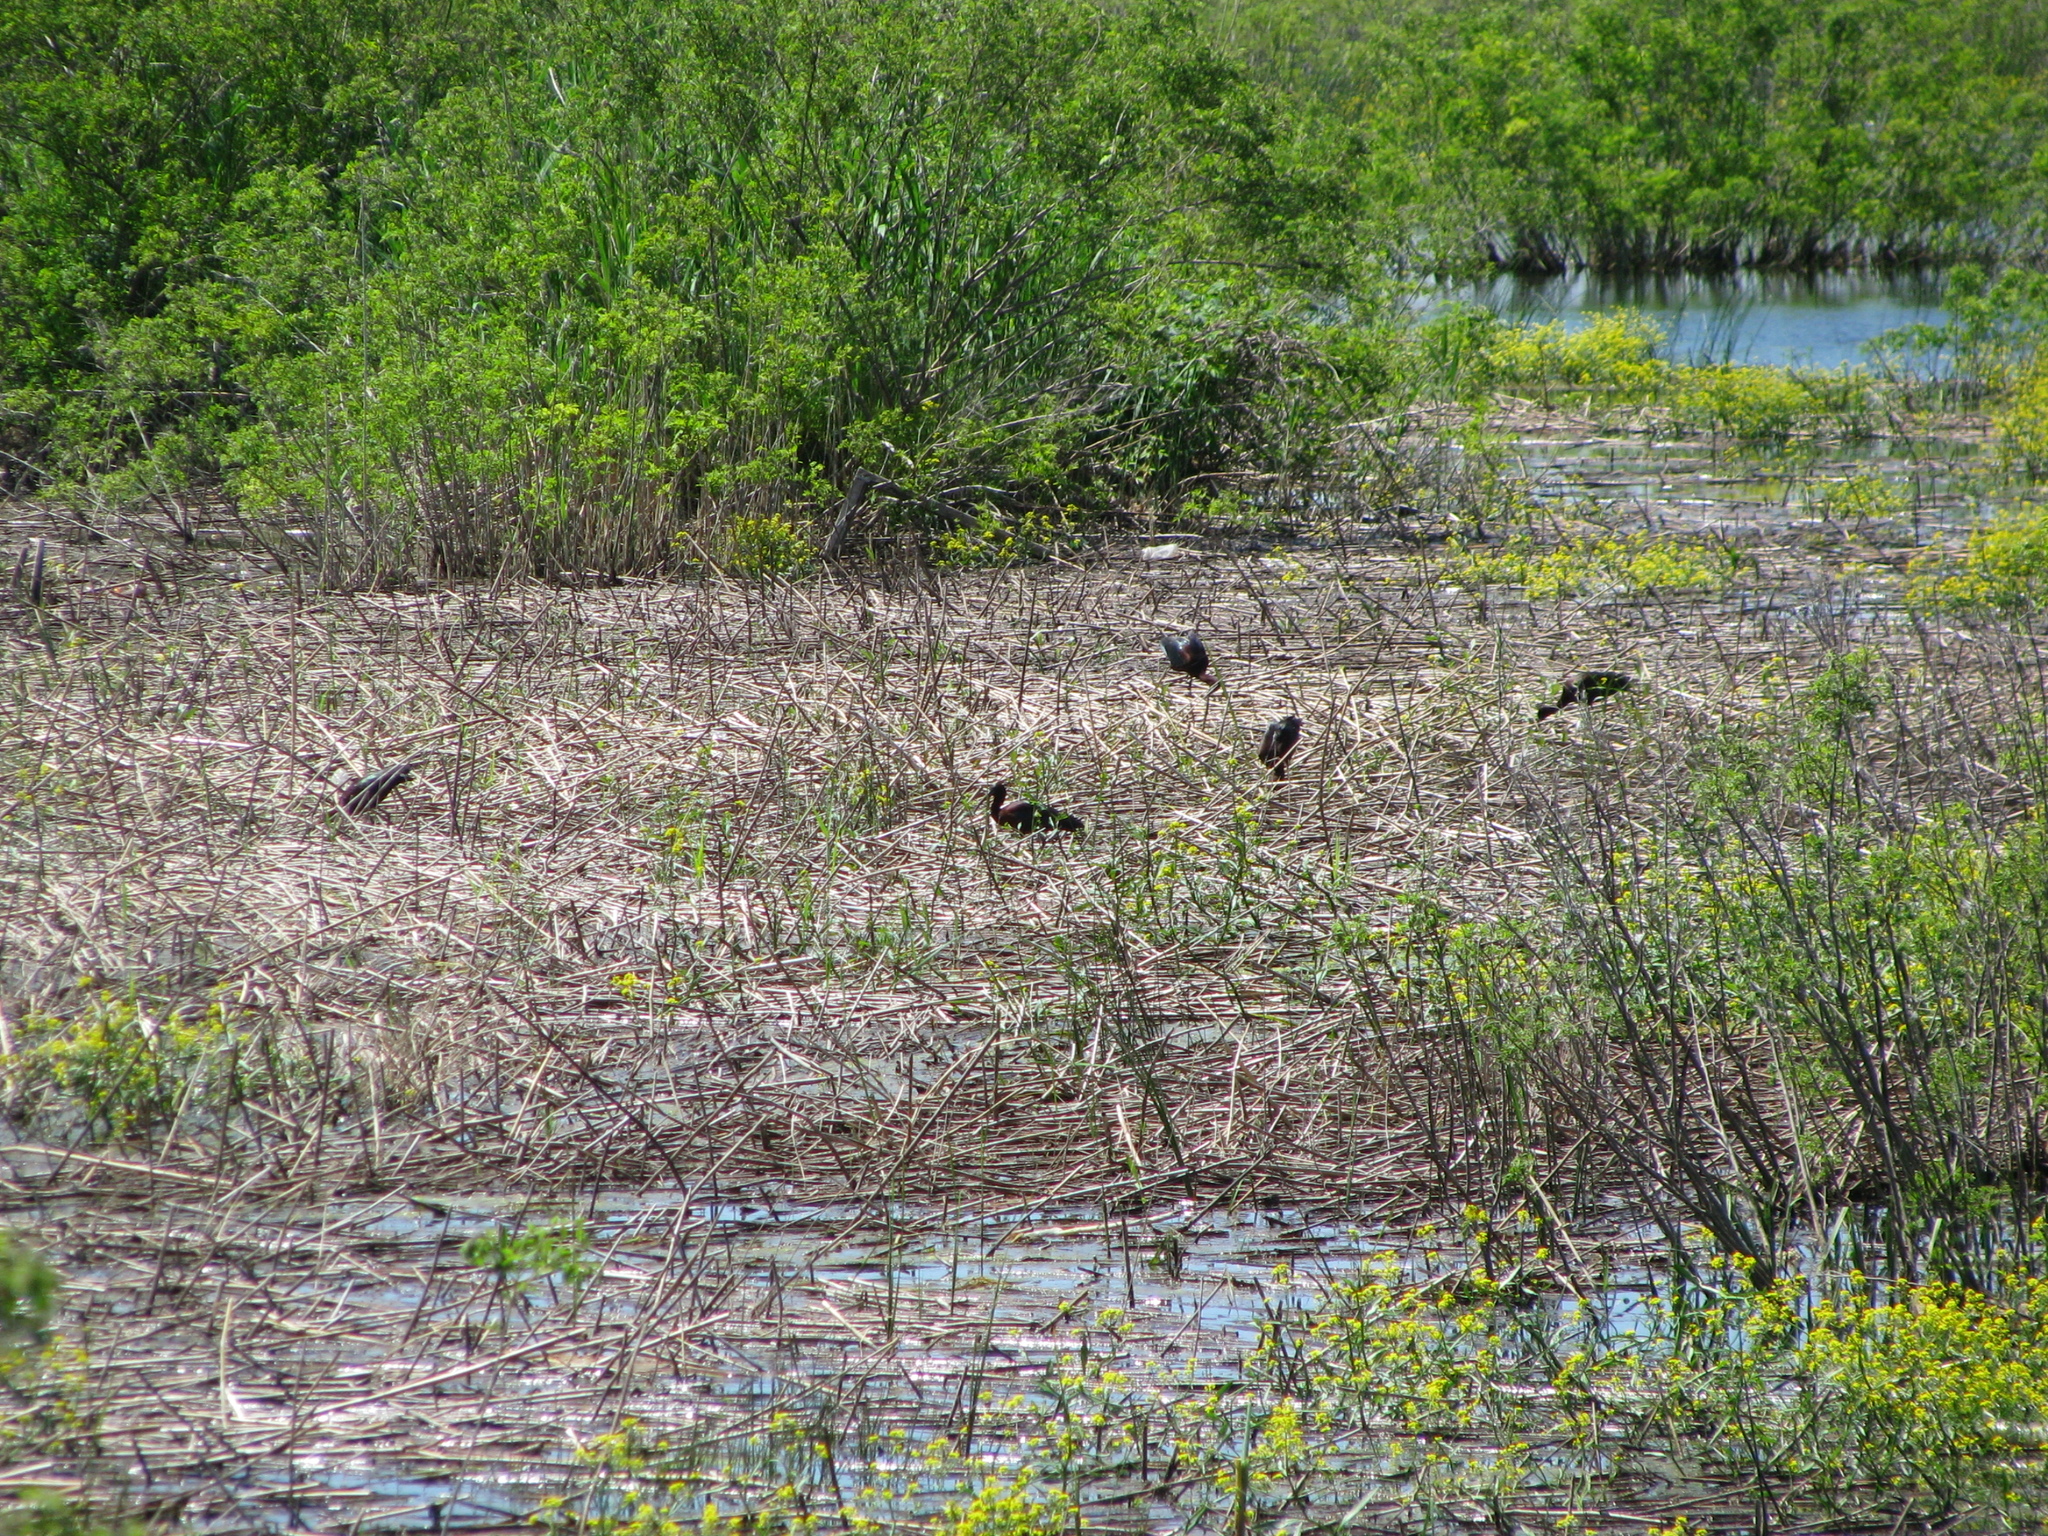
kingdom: Animalia
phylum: Chordata
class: Aves
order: Pelecaniformes
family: Threskiornithidae
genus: Plegadis
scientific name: Plegadis falcinellus
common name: Glossy ibis
